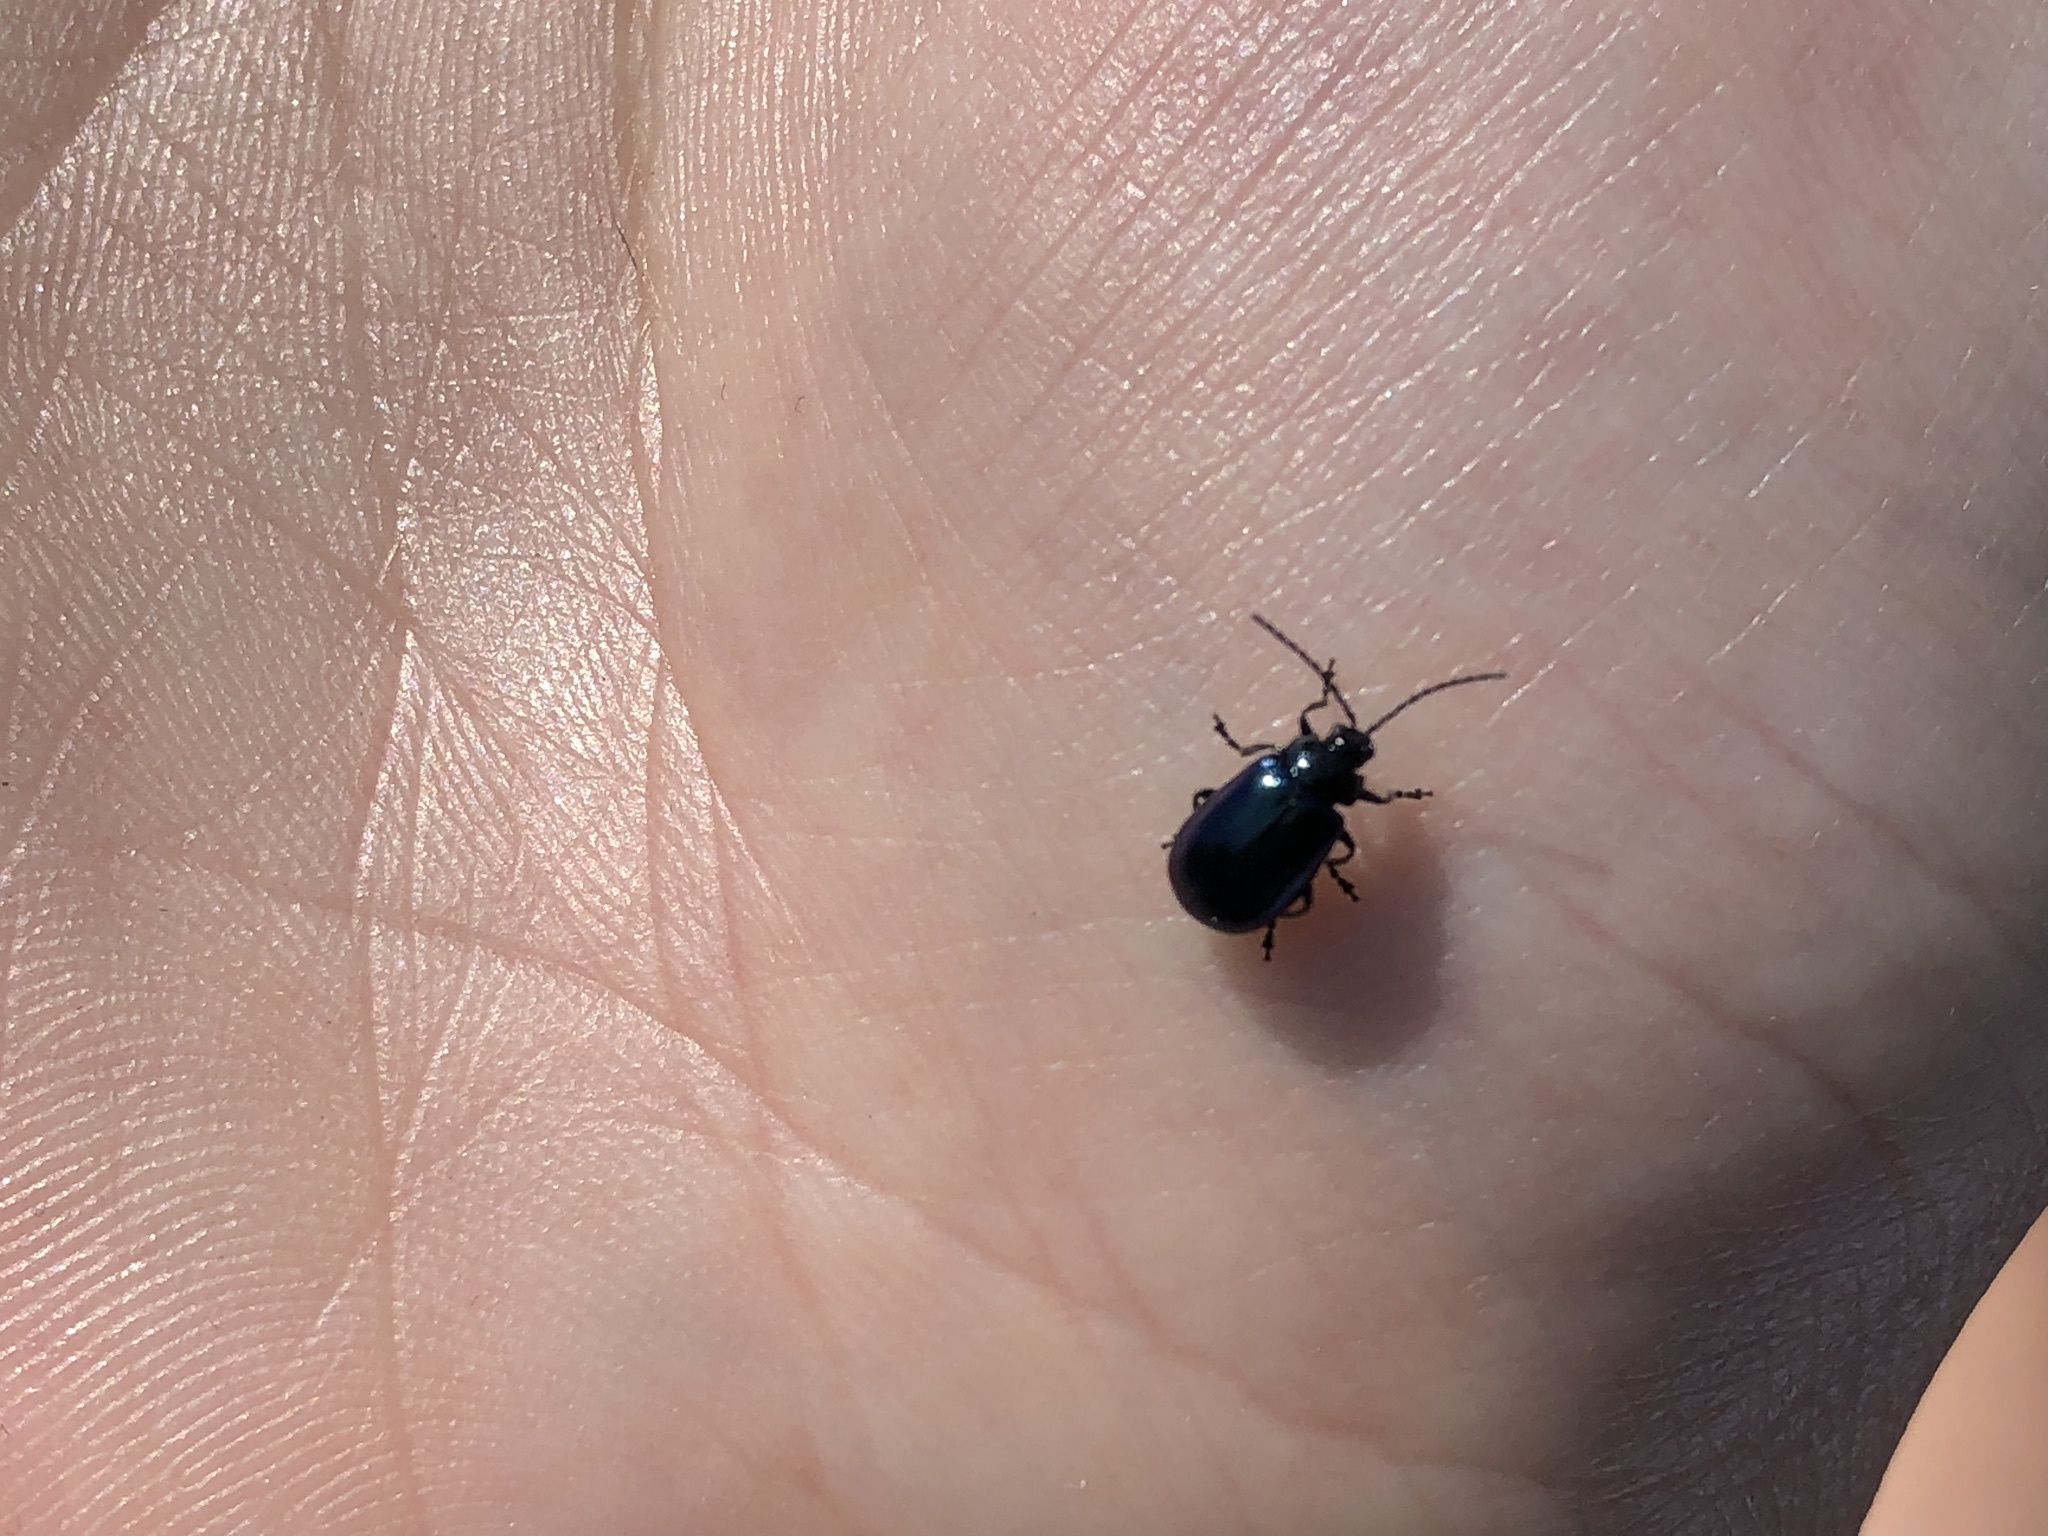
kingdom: Animalia
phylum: Arthropoda
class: Insecta
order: Coleoptera
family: Chrysomelidae
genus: Agelastica
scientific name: Agelastica alni
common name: Alder leaf beetle
